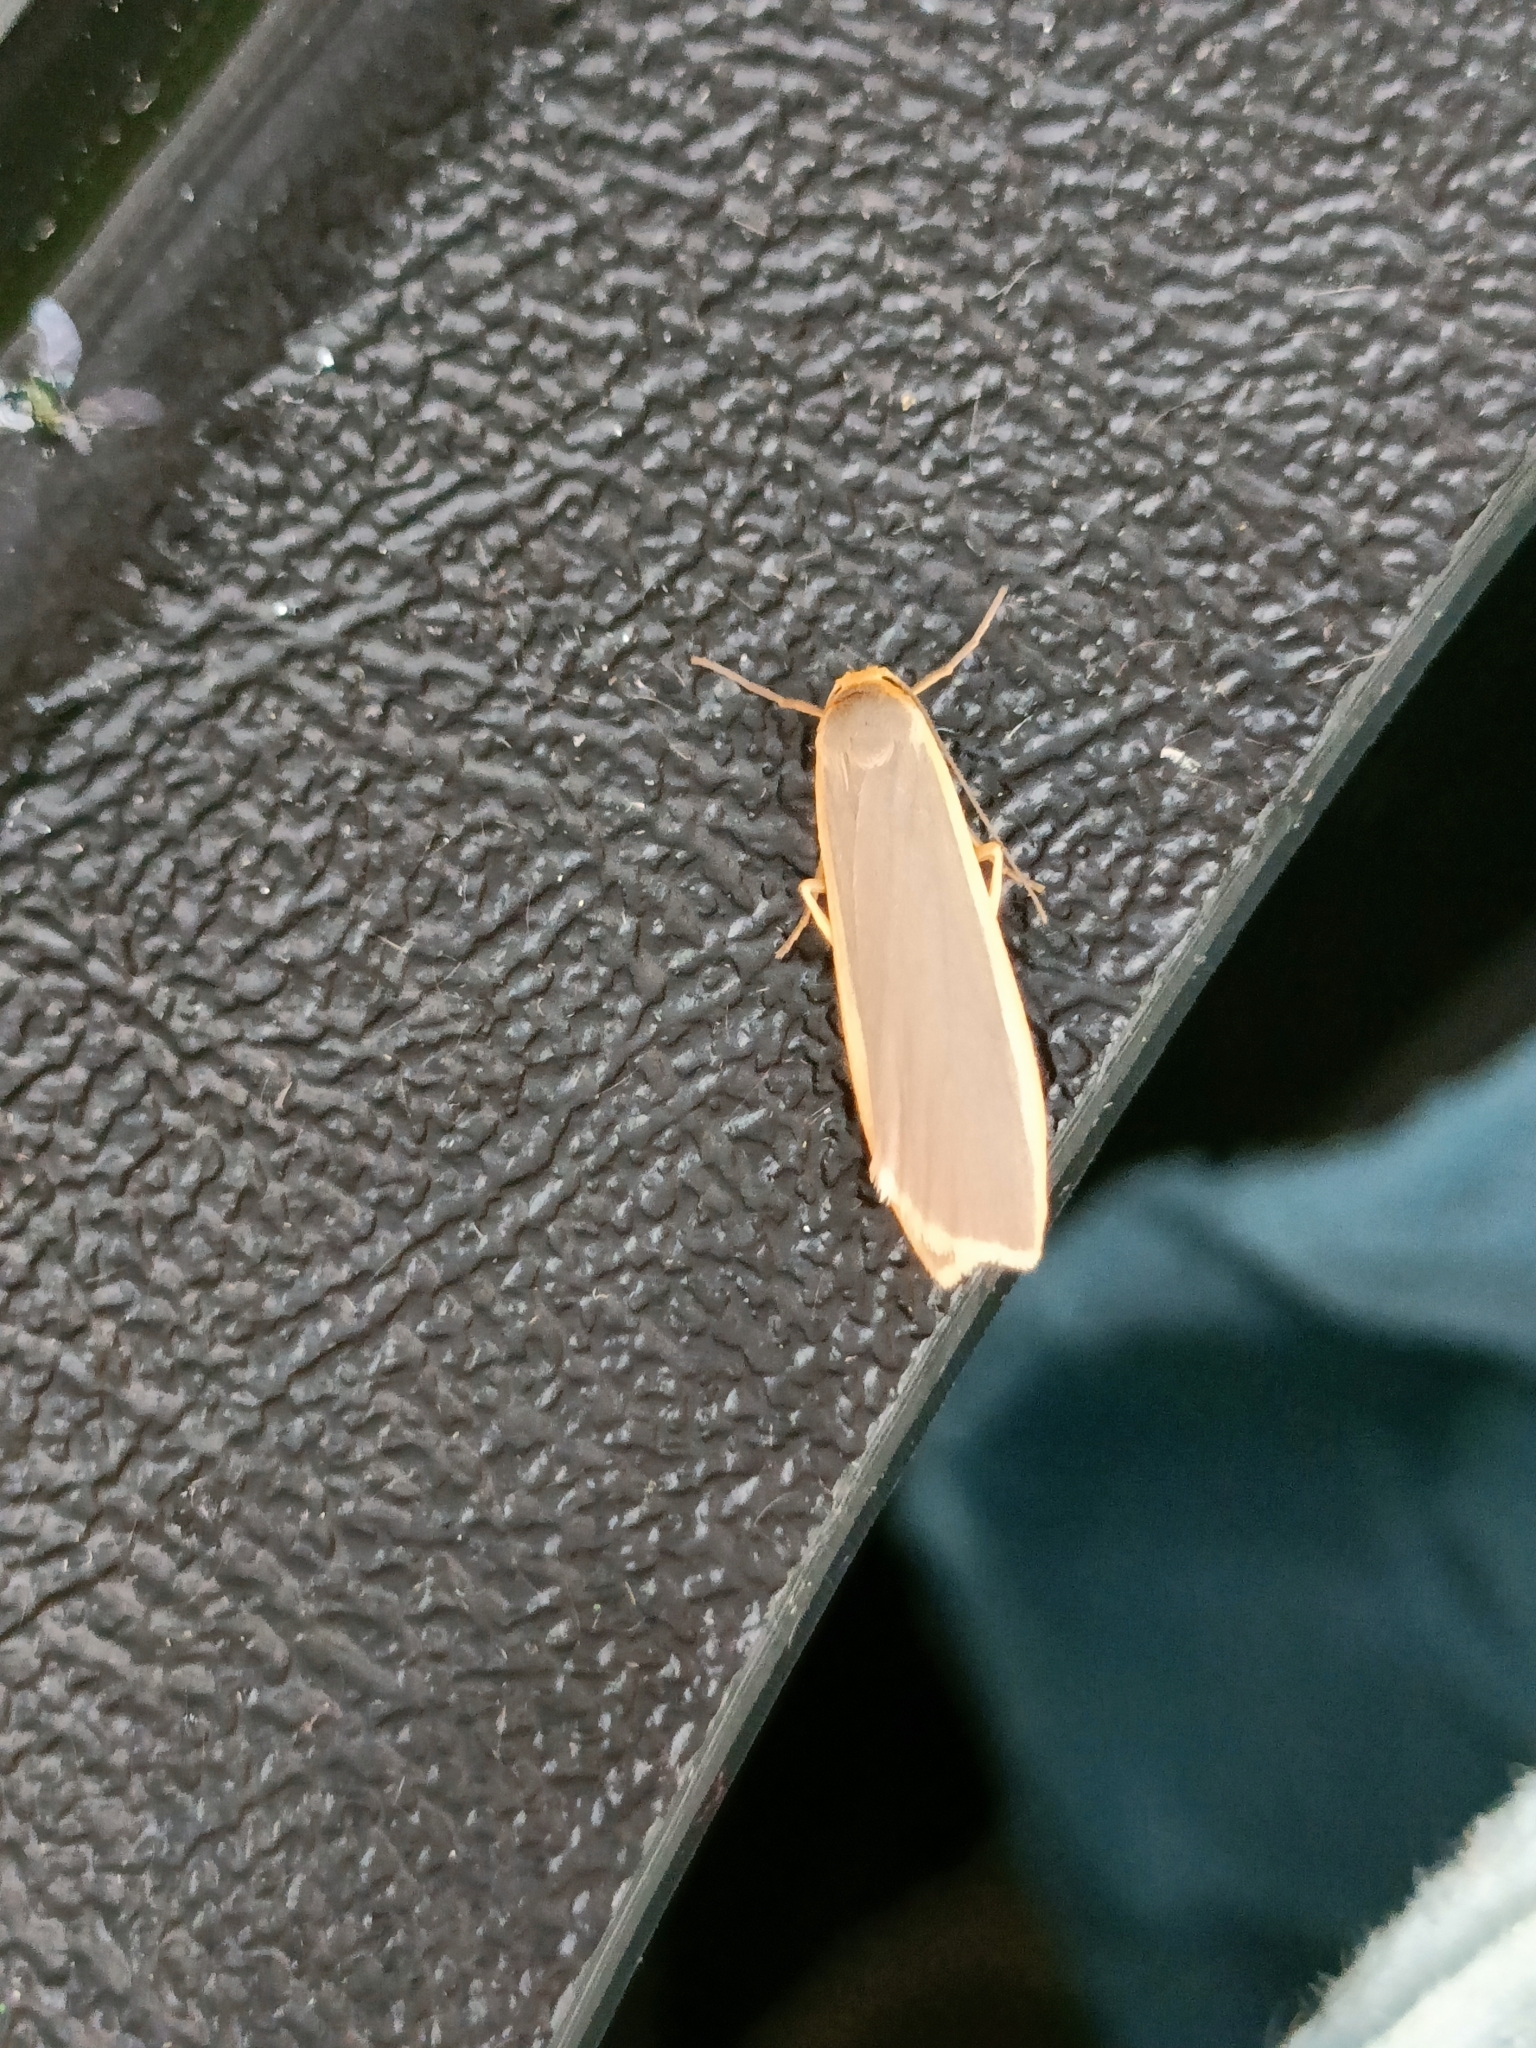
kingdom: Animalia
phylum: Arthropoda
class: Insecta
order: Lepidoptera
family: Erebidae
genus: Nyea
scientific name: Nyea lurideola
